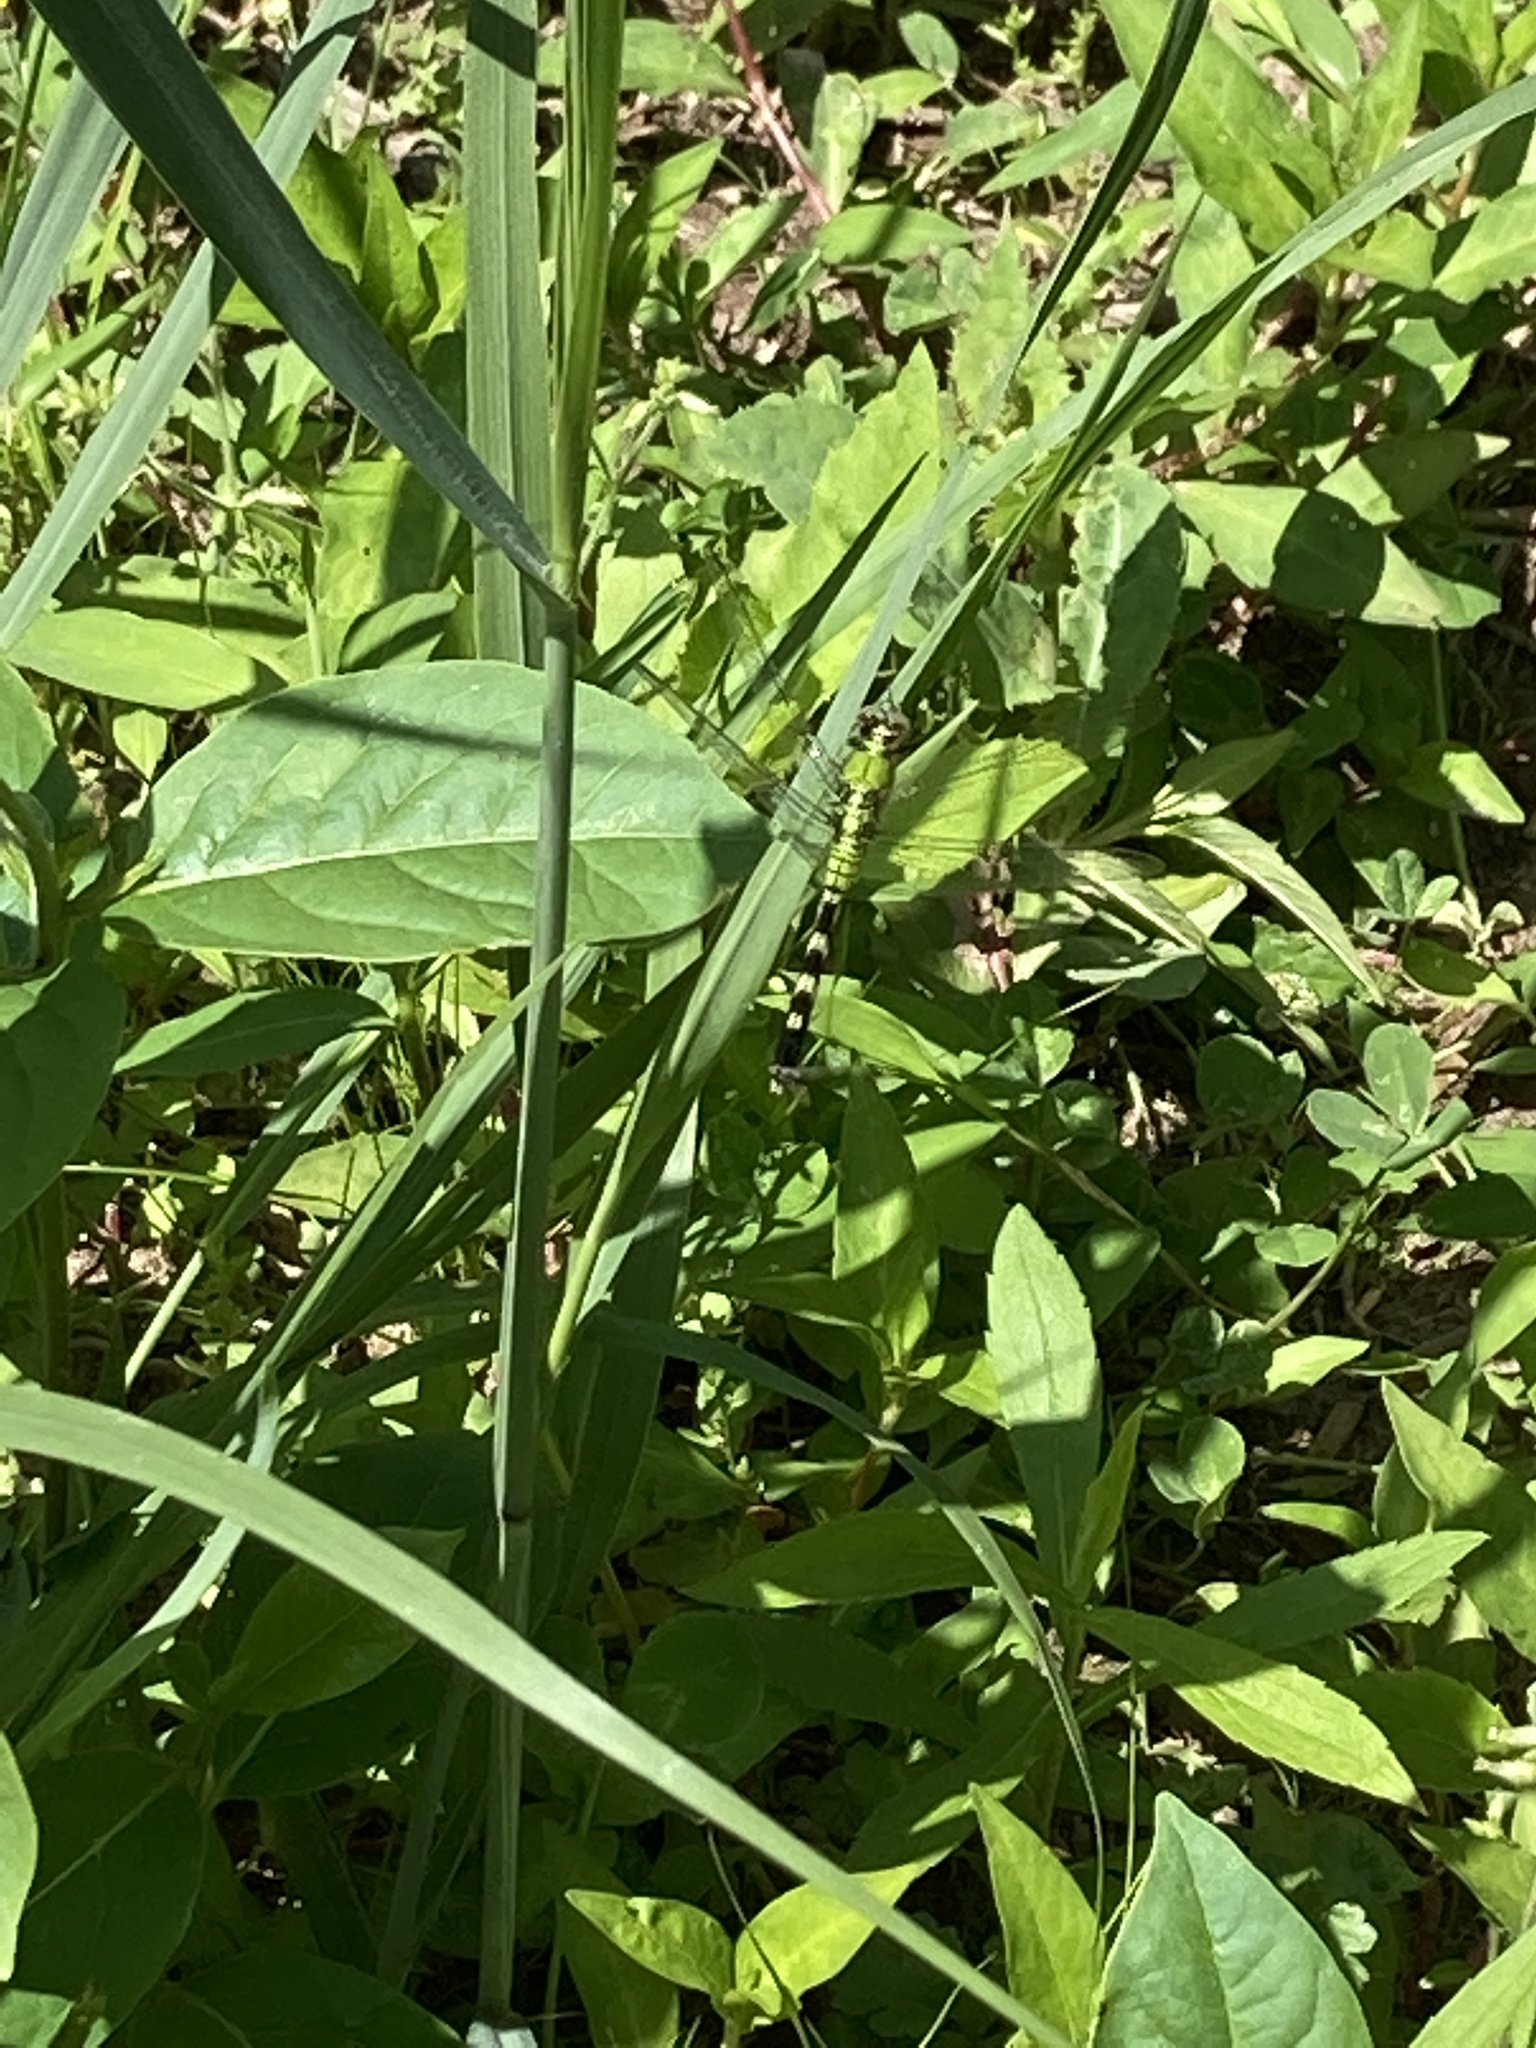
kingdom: Animalia
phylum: Arthropoda
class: Insecta
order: Odonata
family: Libellulidae
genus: Erythemis
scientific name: Erythemis simplicicollis
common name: Eastern pondhawk
